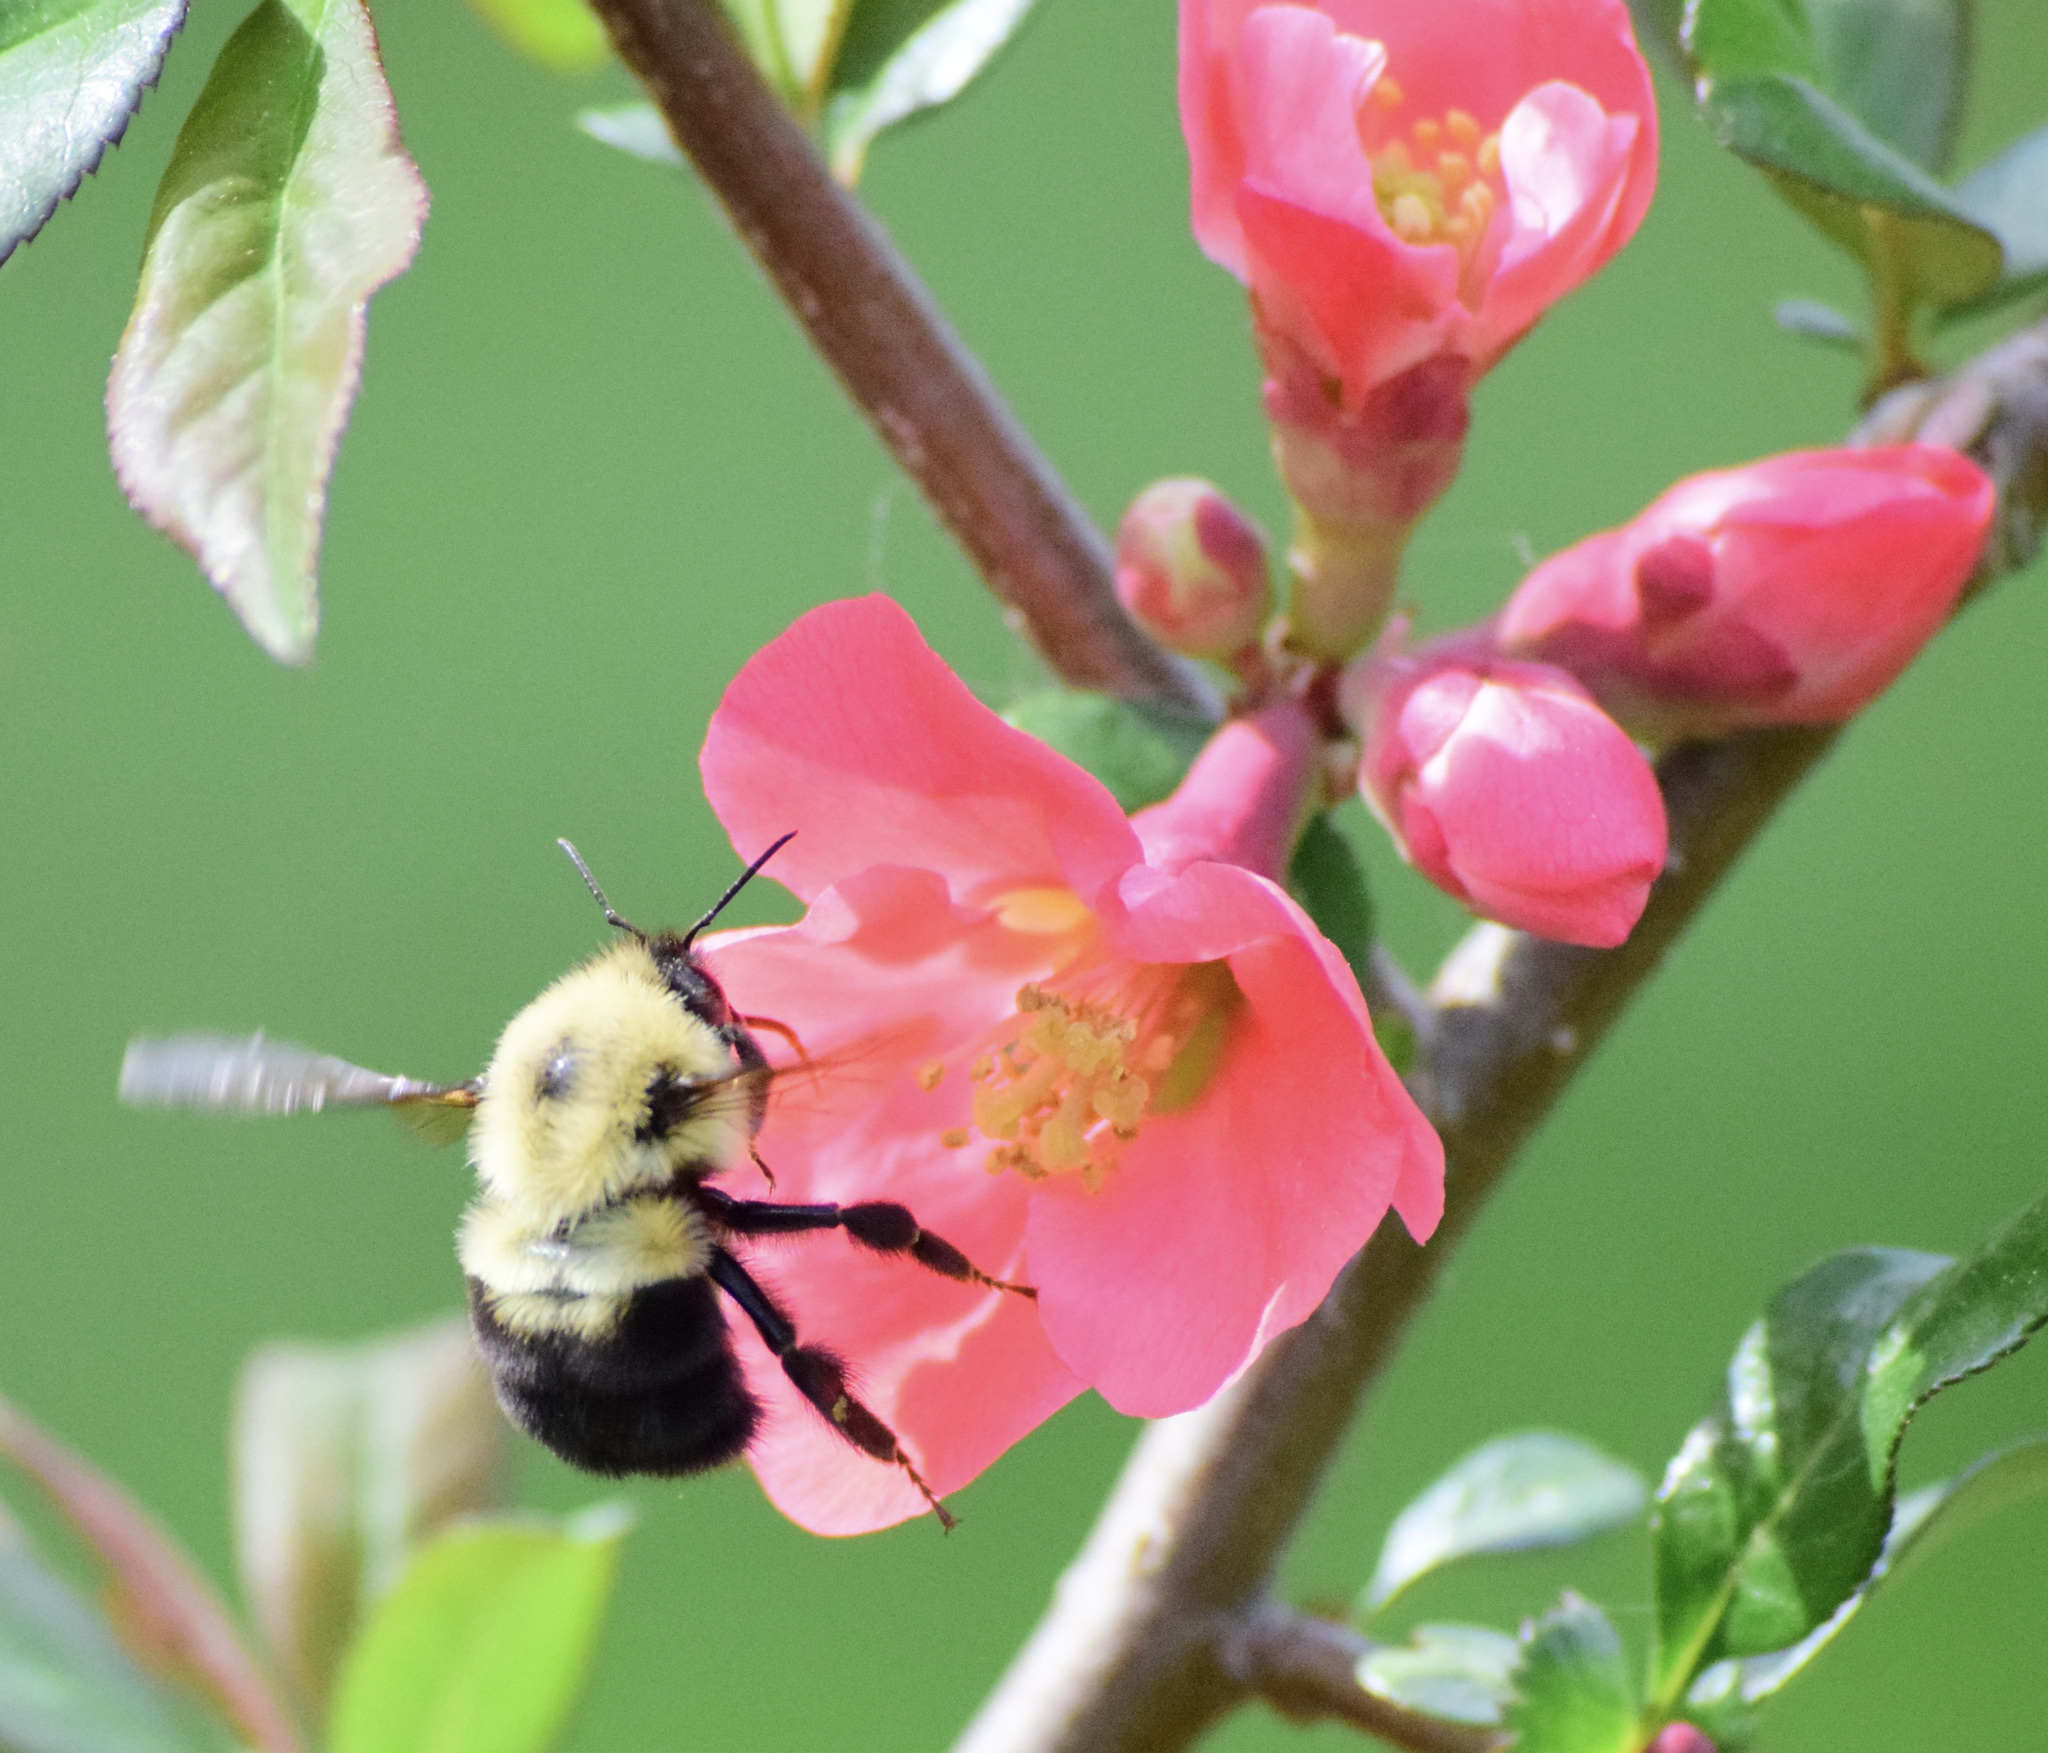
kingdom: Animalia
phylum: Arthropoda
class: Insecta
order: Hymenoptera
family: Apidae
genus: Bombus
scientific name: Bombus bimaculatus
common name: Two-spotted bumble bee
